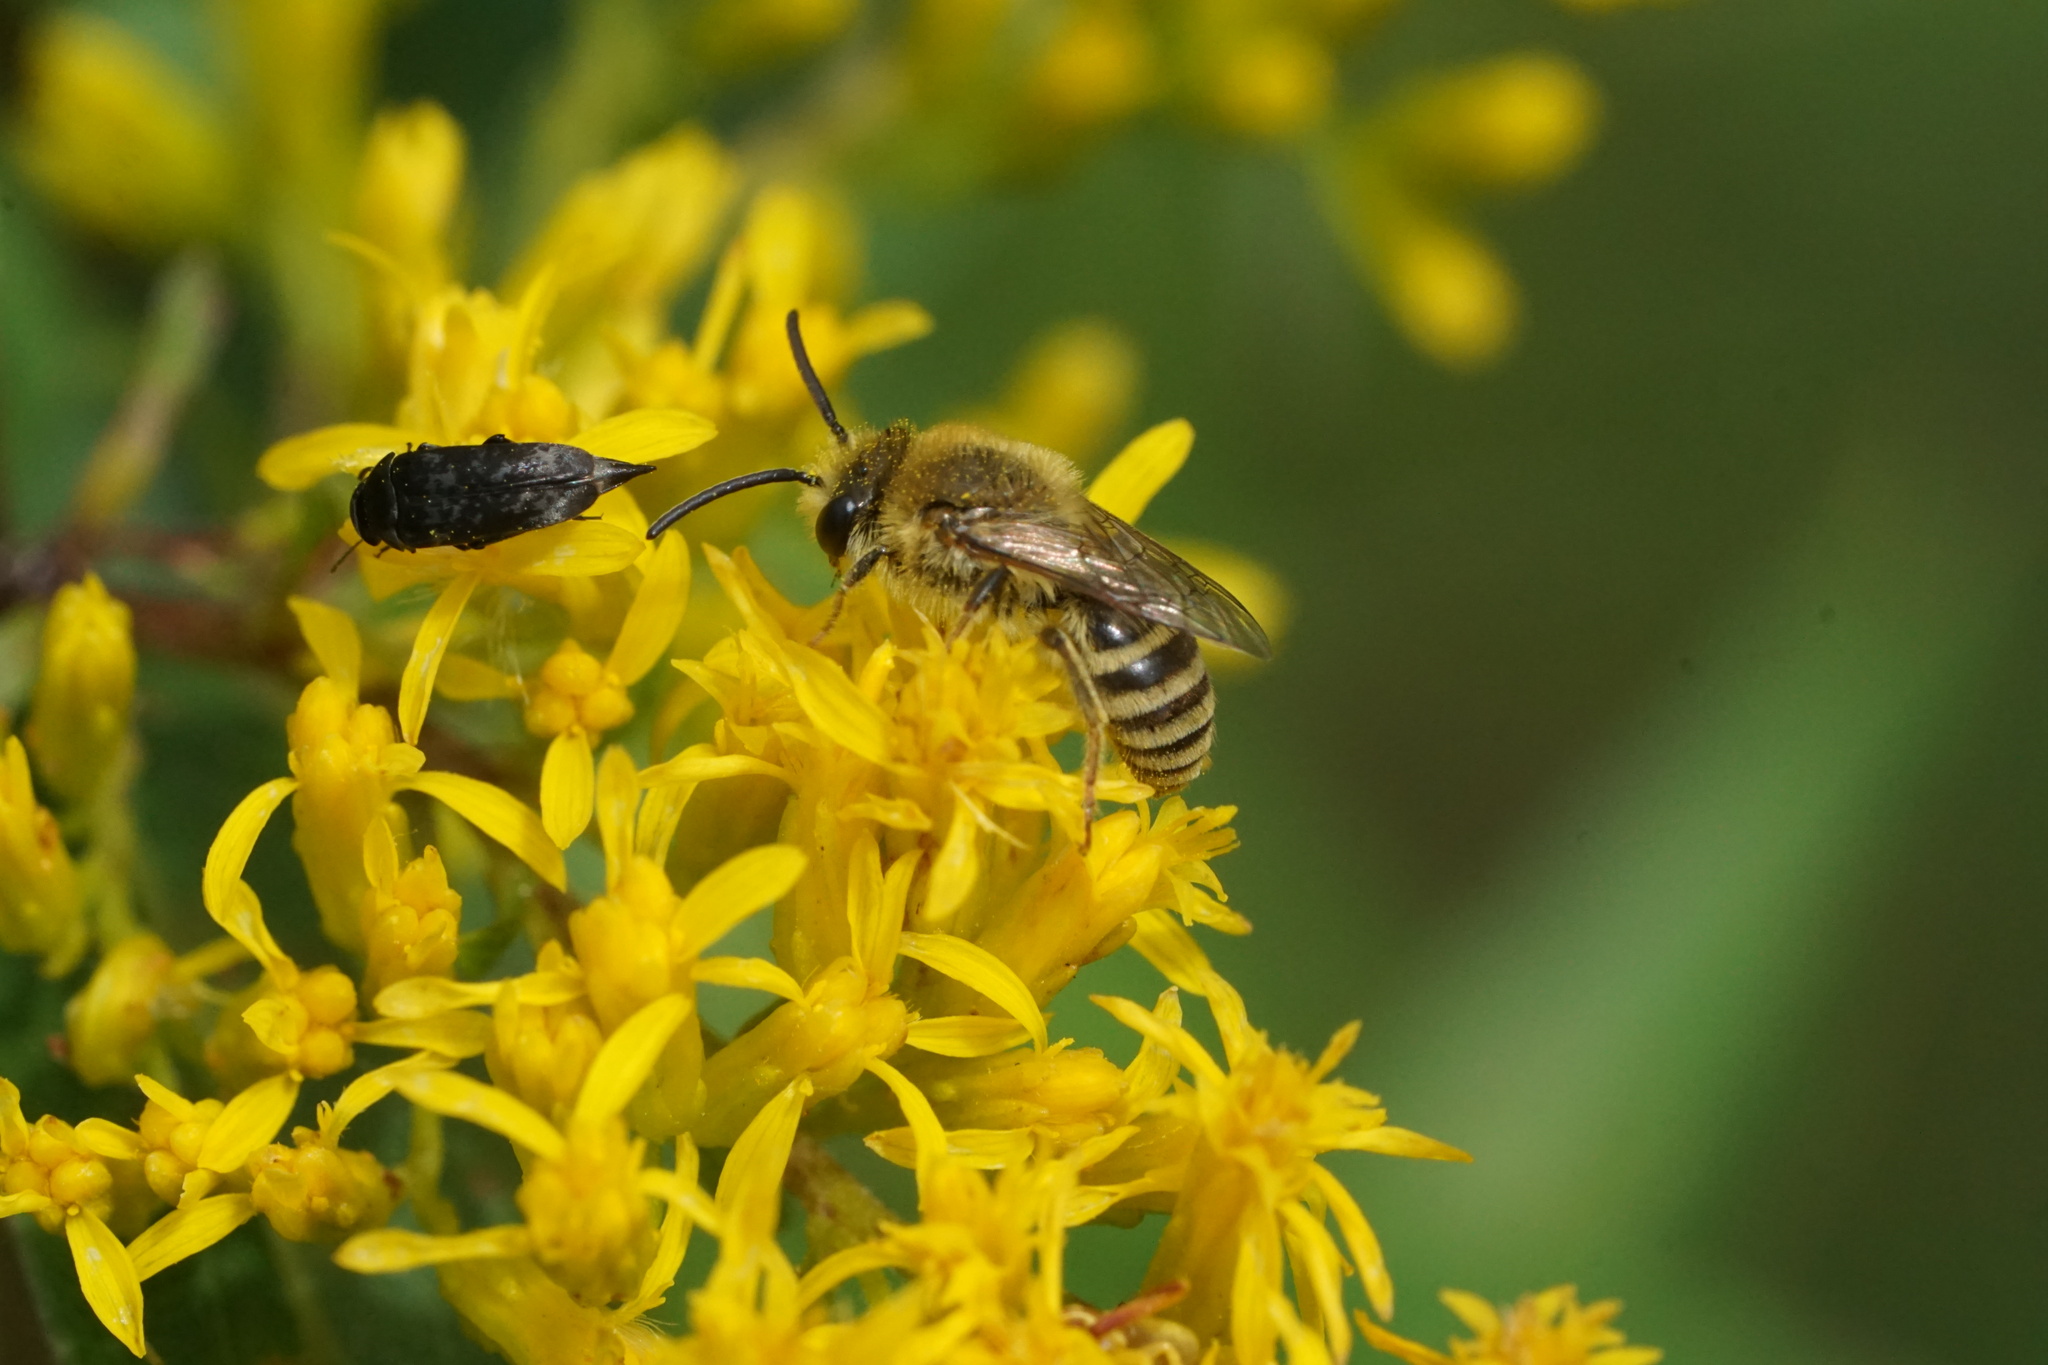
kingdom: Animalia
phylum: Arthropoda
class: Insecta
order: Hymenoptera
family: Colletidae
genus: Colletes
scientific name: Colletes solidaginis
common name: Goldenrod cellophane bee
